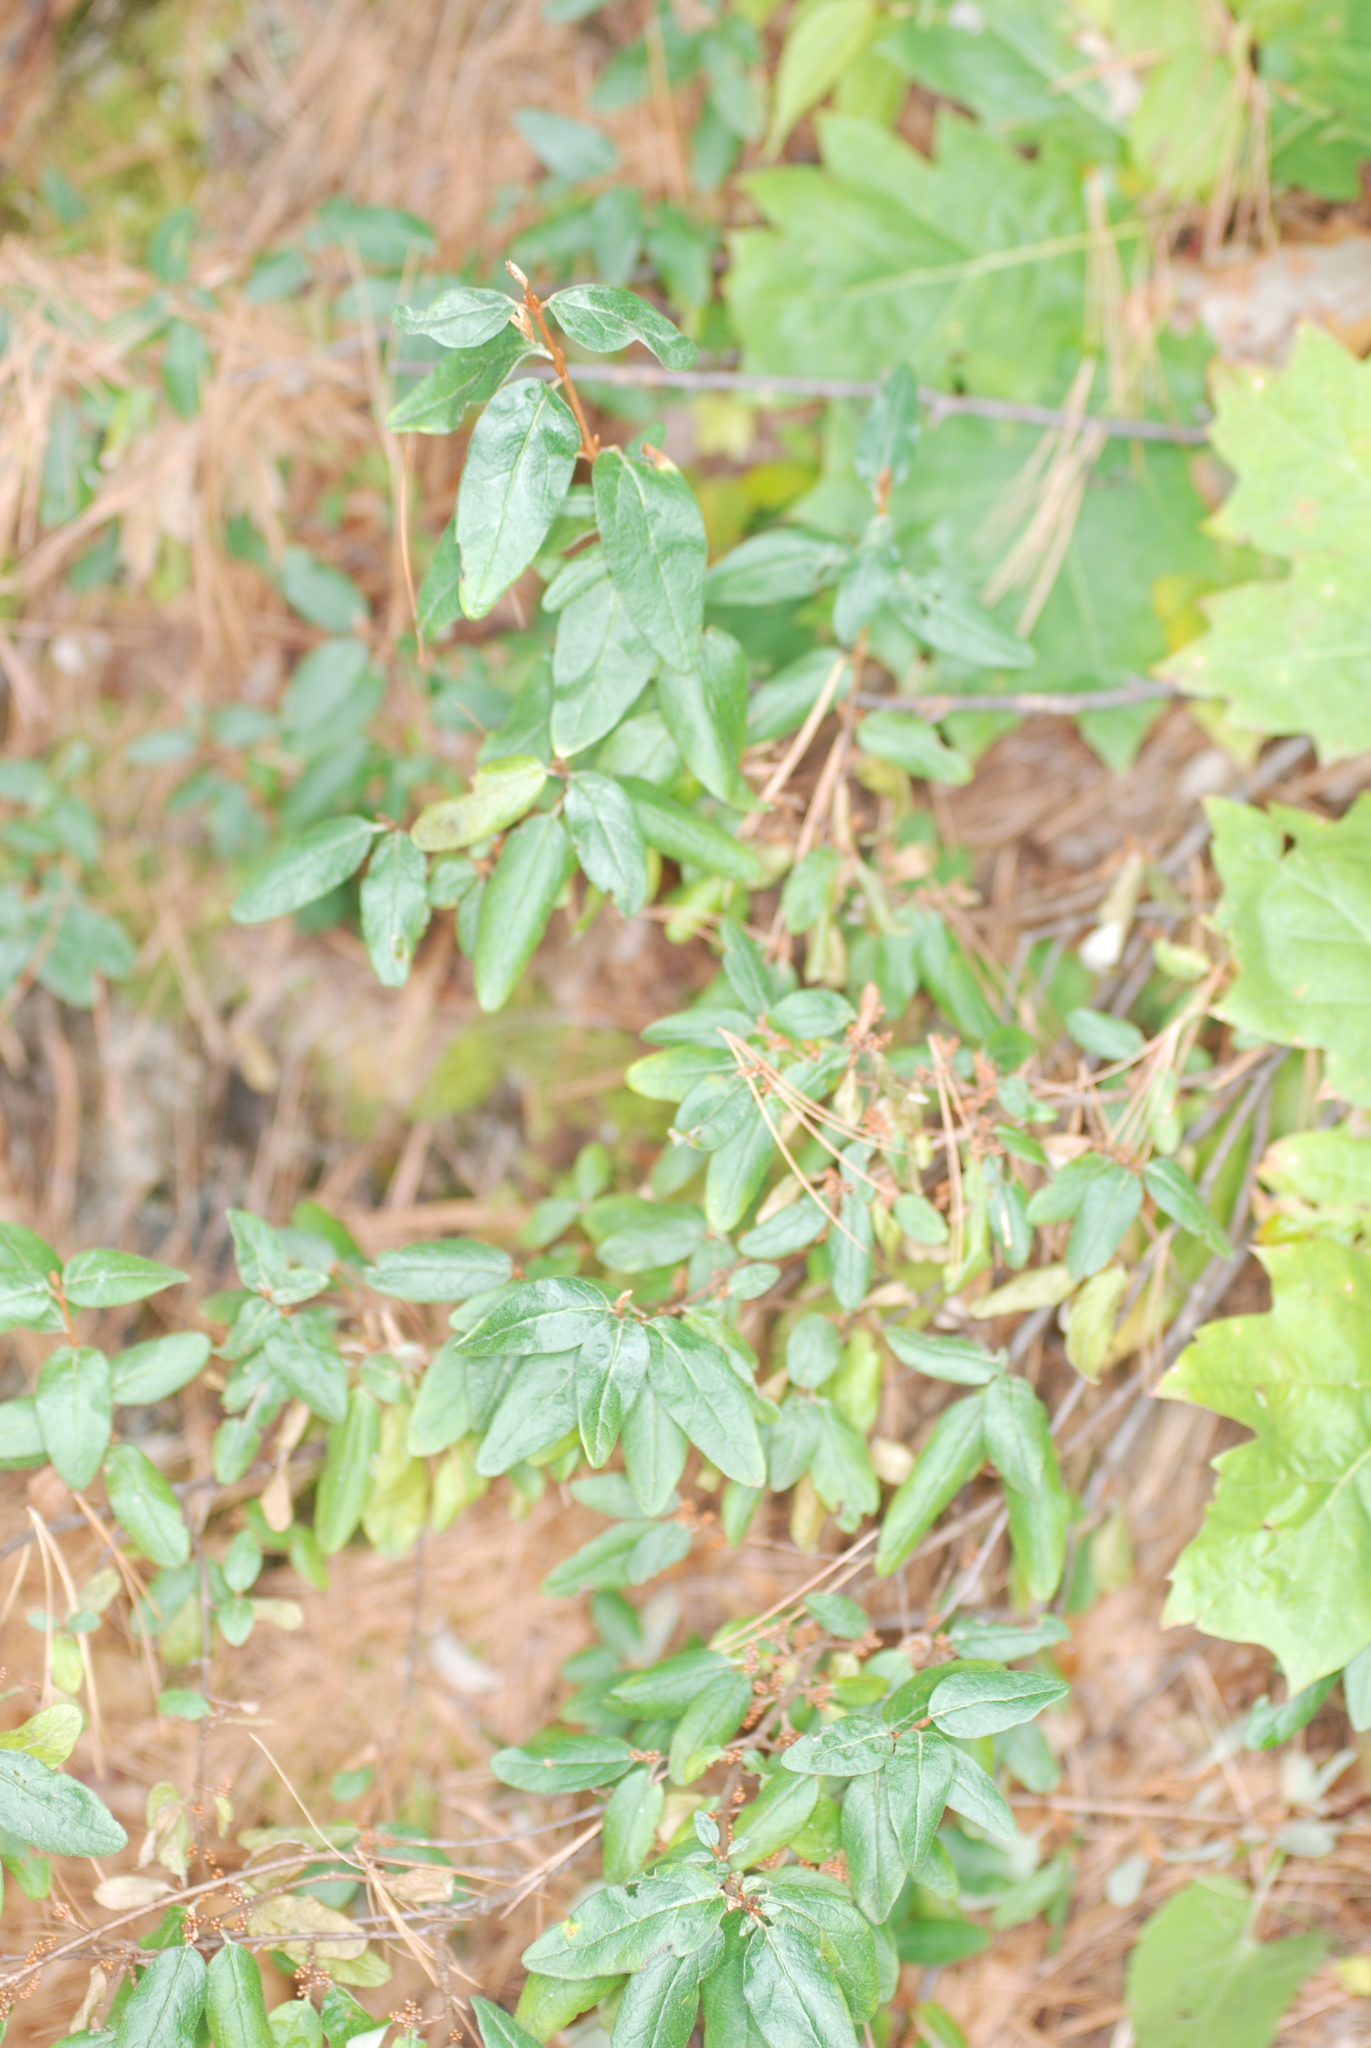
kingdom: Plantae
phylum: Tracheophyta
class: Magnoliopsida
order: Rosales
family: Elaeagnaceae
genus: Shepherdia
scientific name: Shepherdia canadensis
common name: Soapberry
